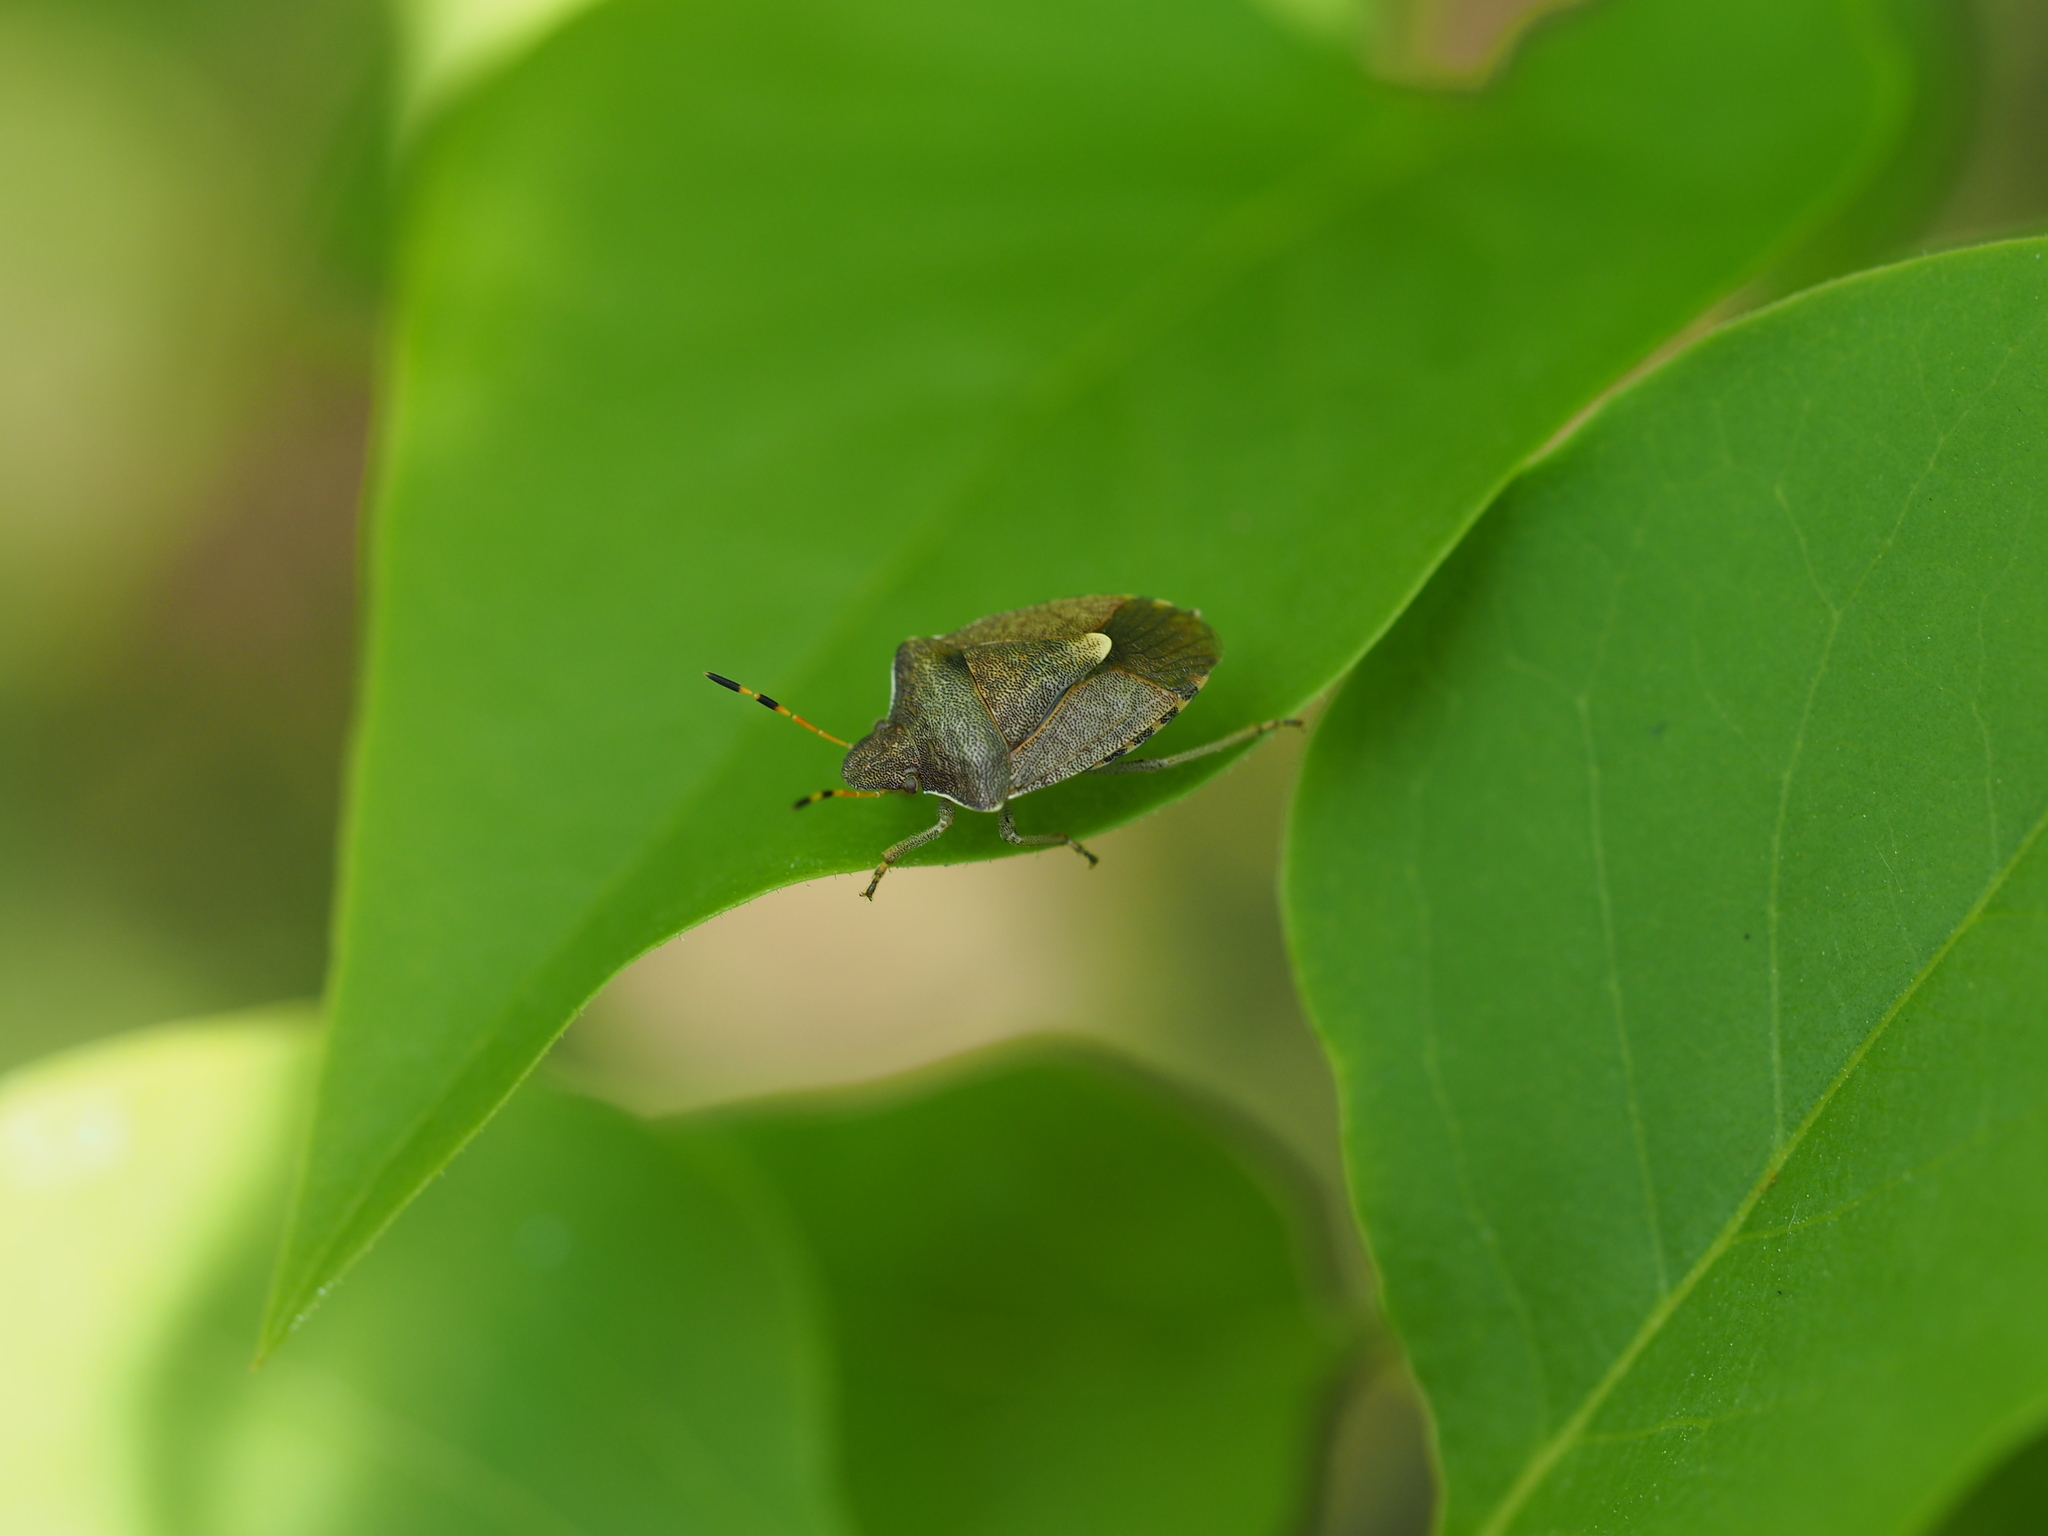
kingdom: Animalia
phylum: Arthropoda
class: Insecta
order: Hemiptera
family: Pentatomidae
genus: Holcostethus
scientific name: Holcostethus strictus
